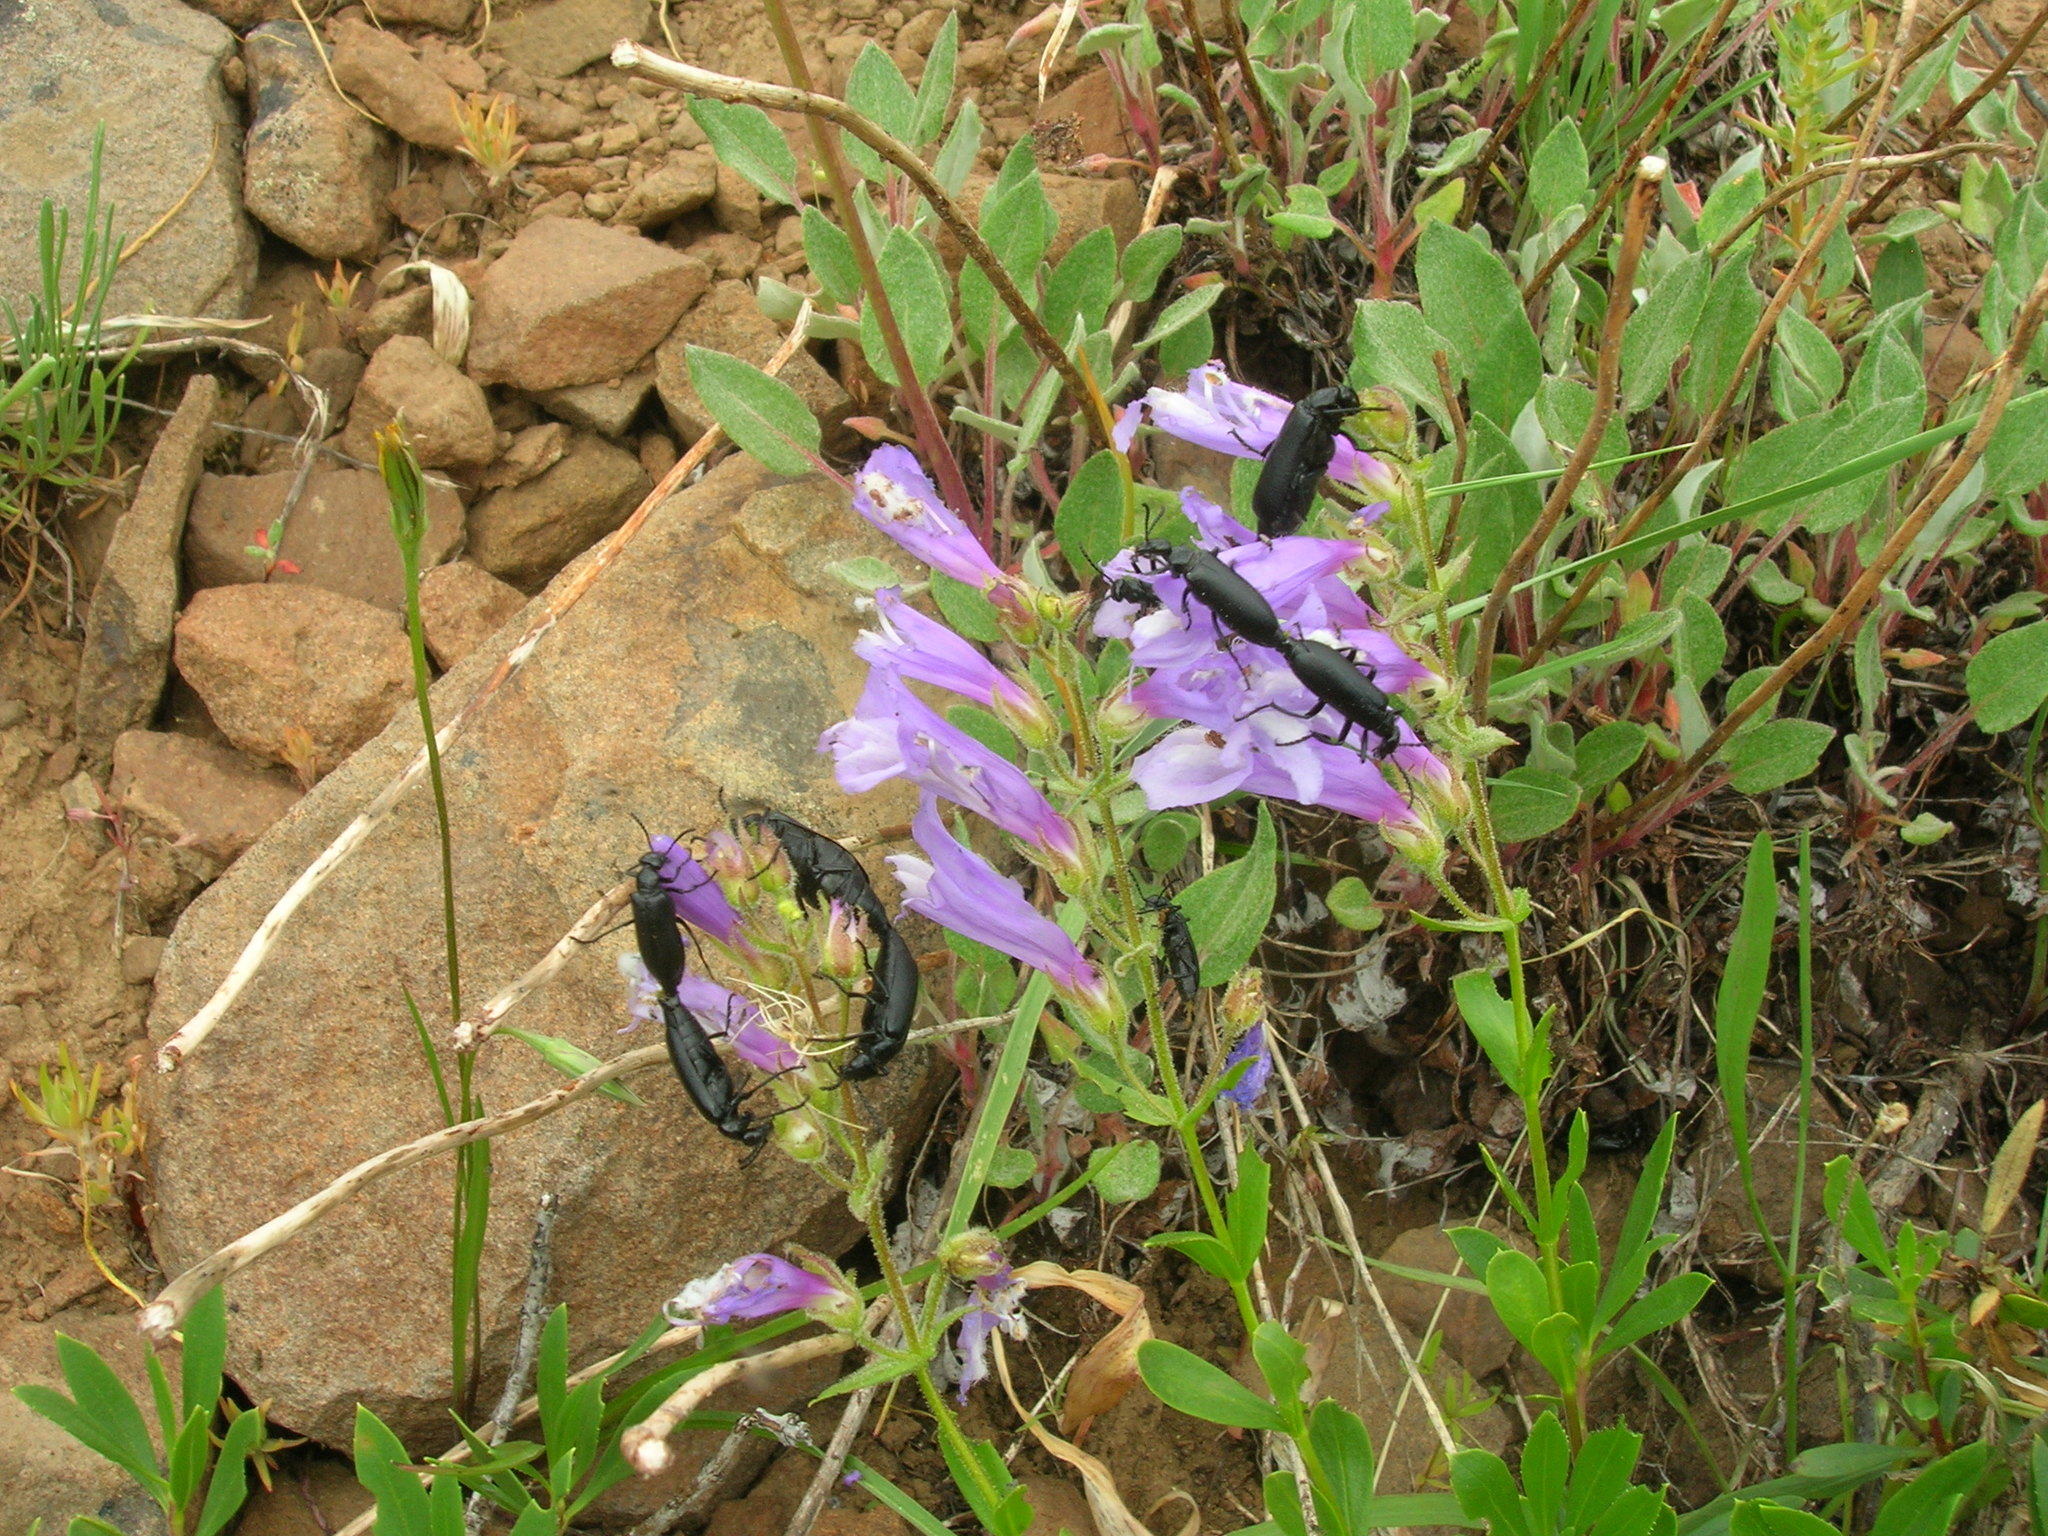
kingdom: Plantae
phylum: Tracheophyta
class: Magnoliopsida
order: Lamiales
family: Plantaginaceae
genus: Penstemon
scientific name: Penstemon fruticosus
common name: Bush penstemon
